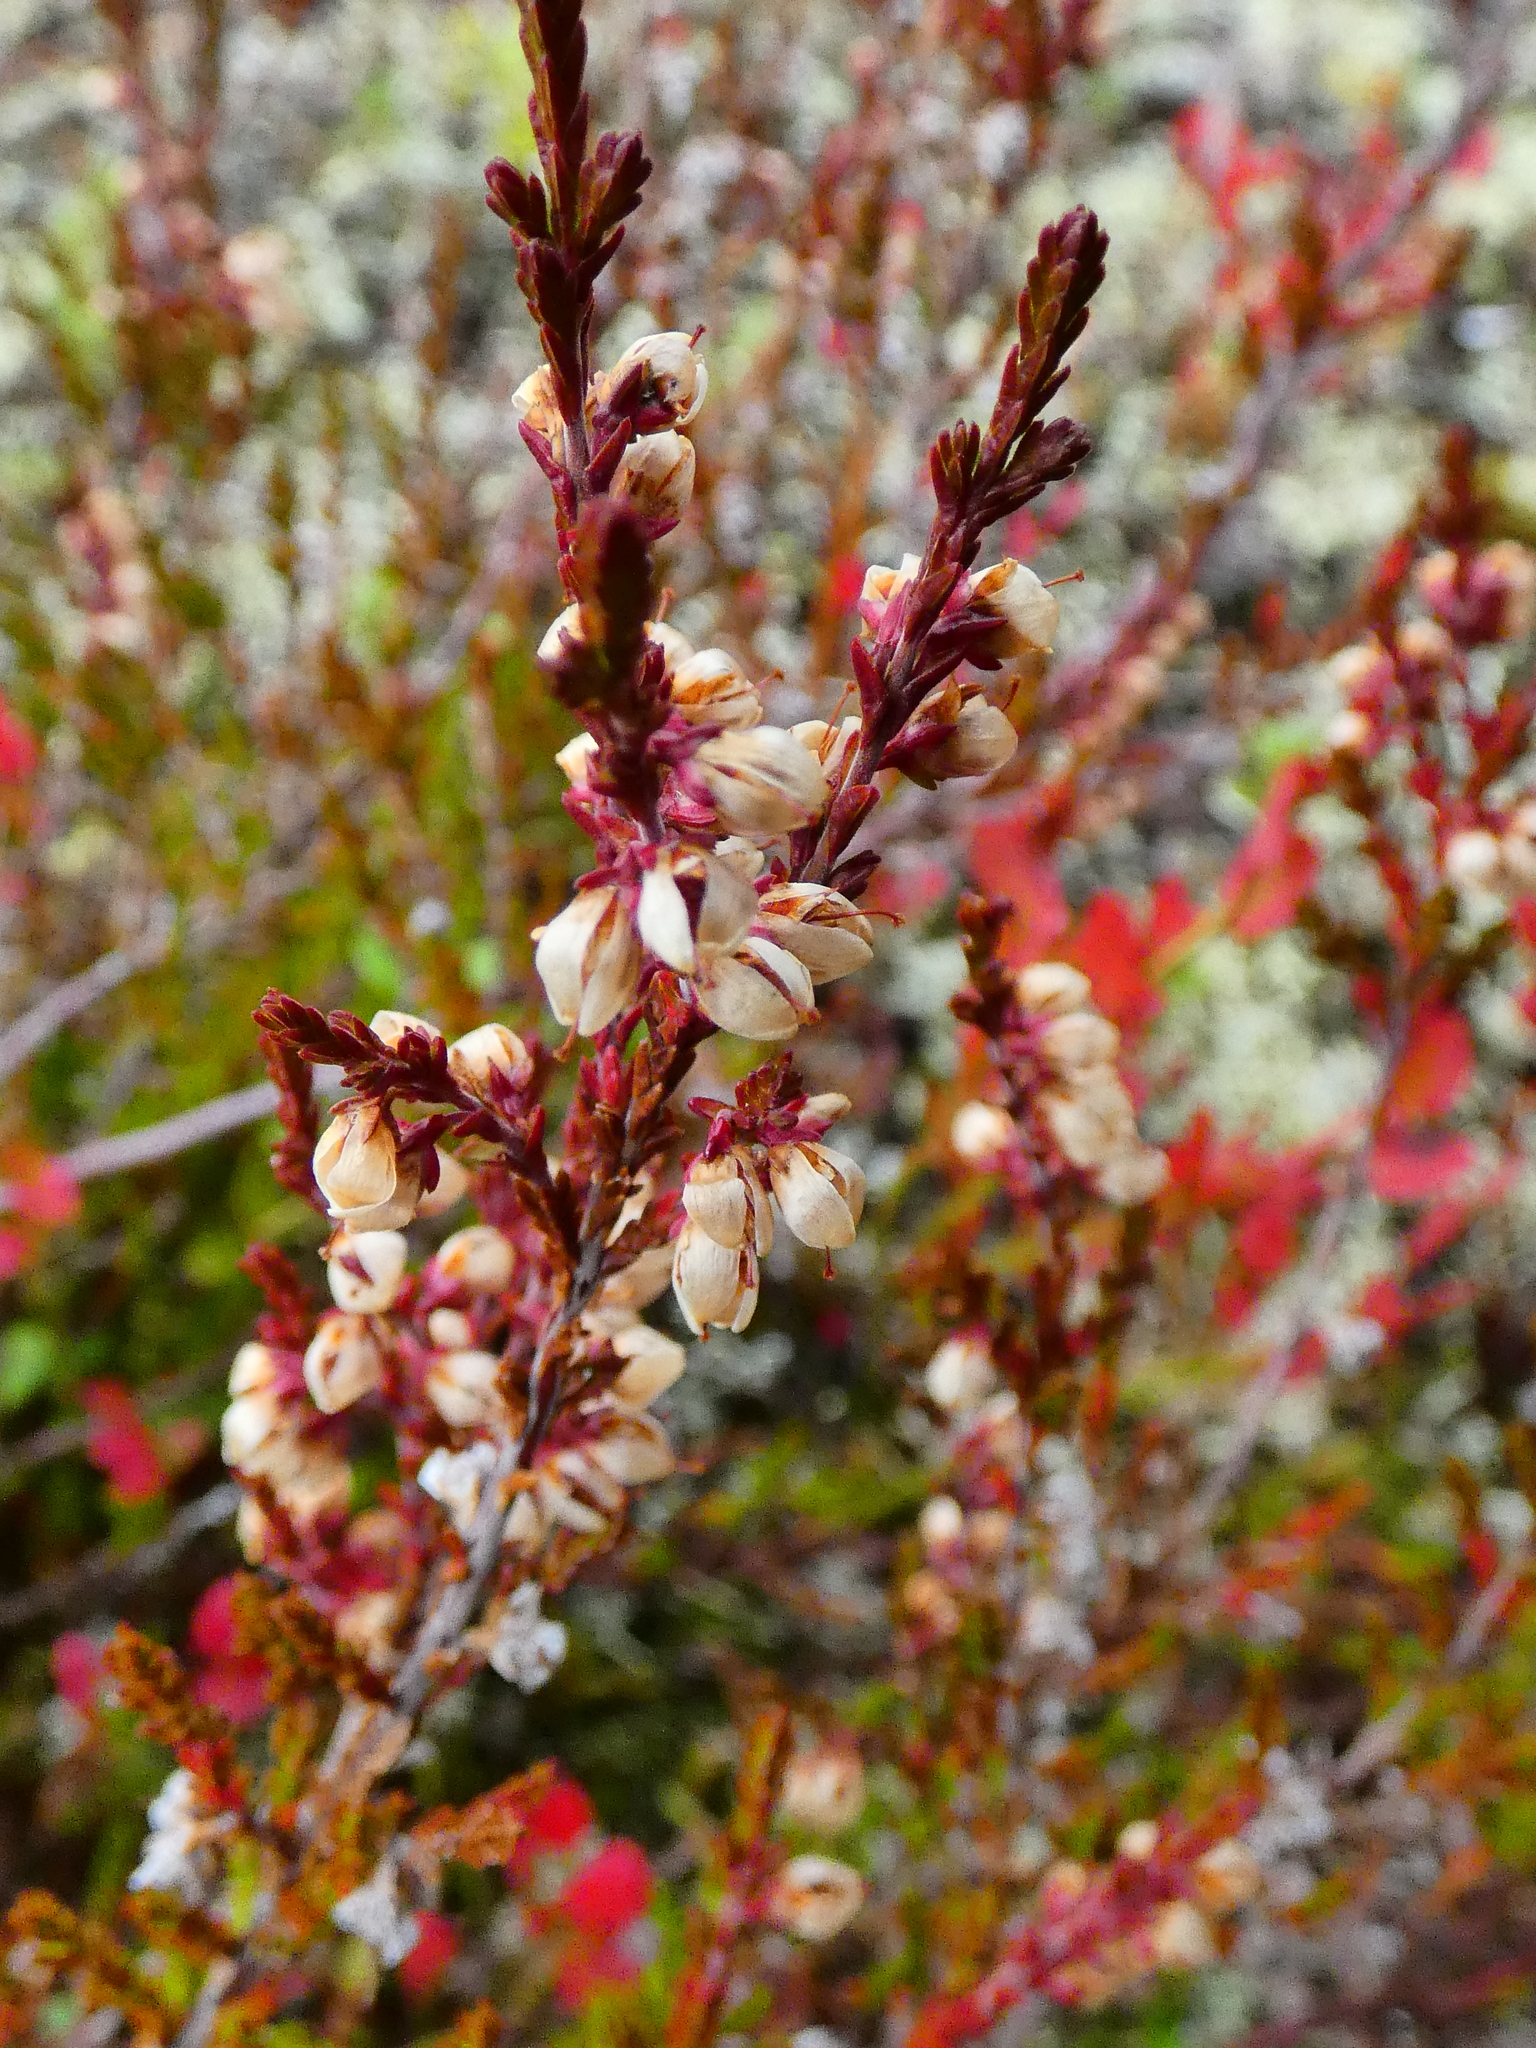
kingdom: Plantae
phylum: Tracheophyta
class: Magnoliopsida
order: Ericales
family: Ericaceae
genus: Calluna
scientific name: Calluna vulgaris
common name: Heather
